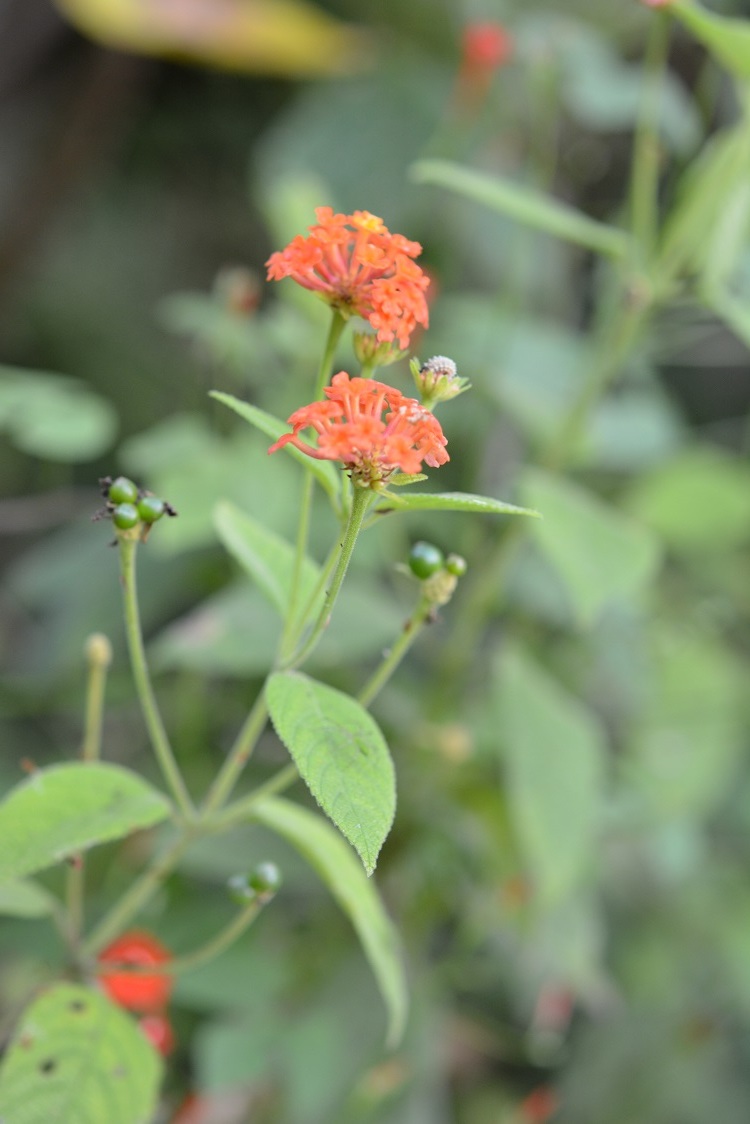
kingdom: Plantae
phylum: Tracheophyta
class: Magnoliopsida
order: Lamiales
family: Verbenaceae
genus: Lantana
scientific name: Lantana camara
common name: Lantana
